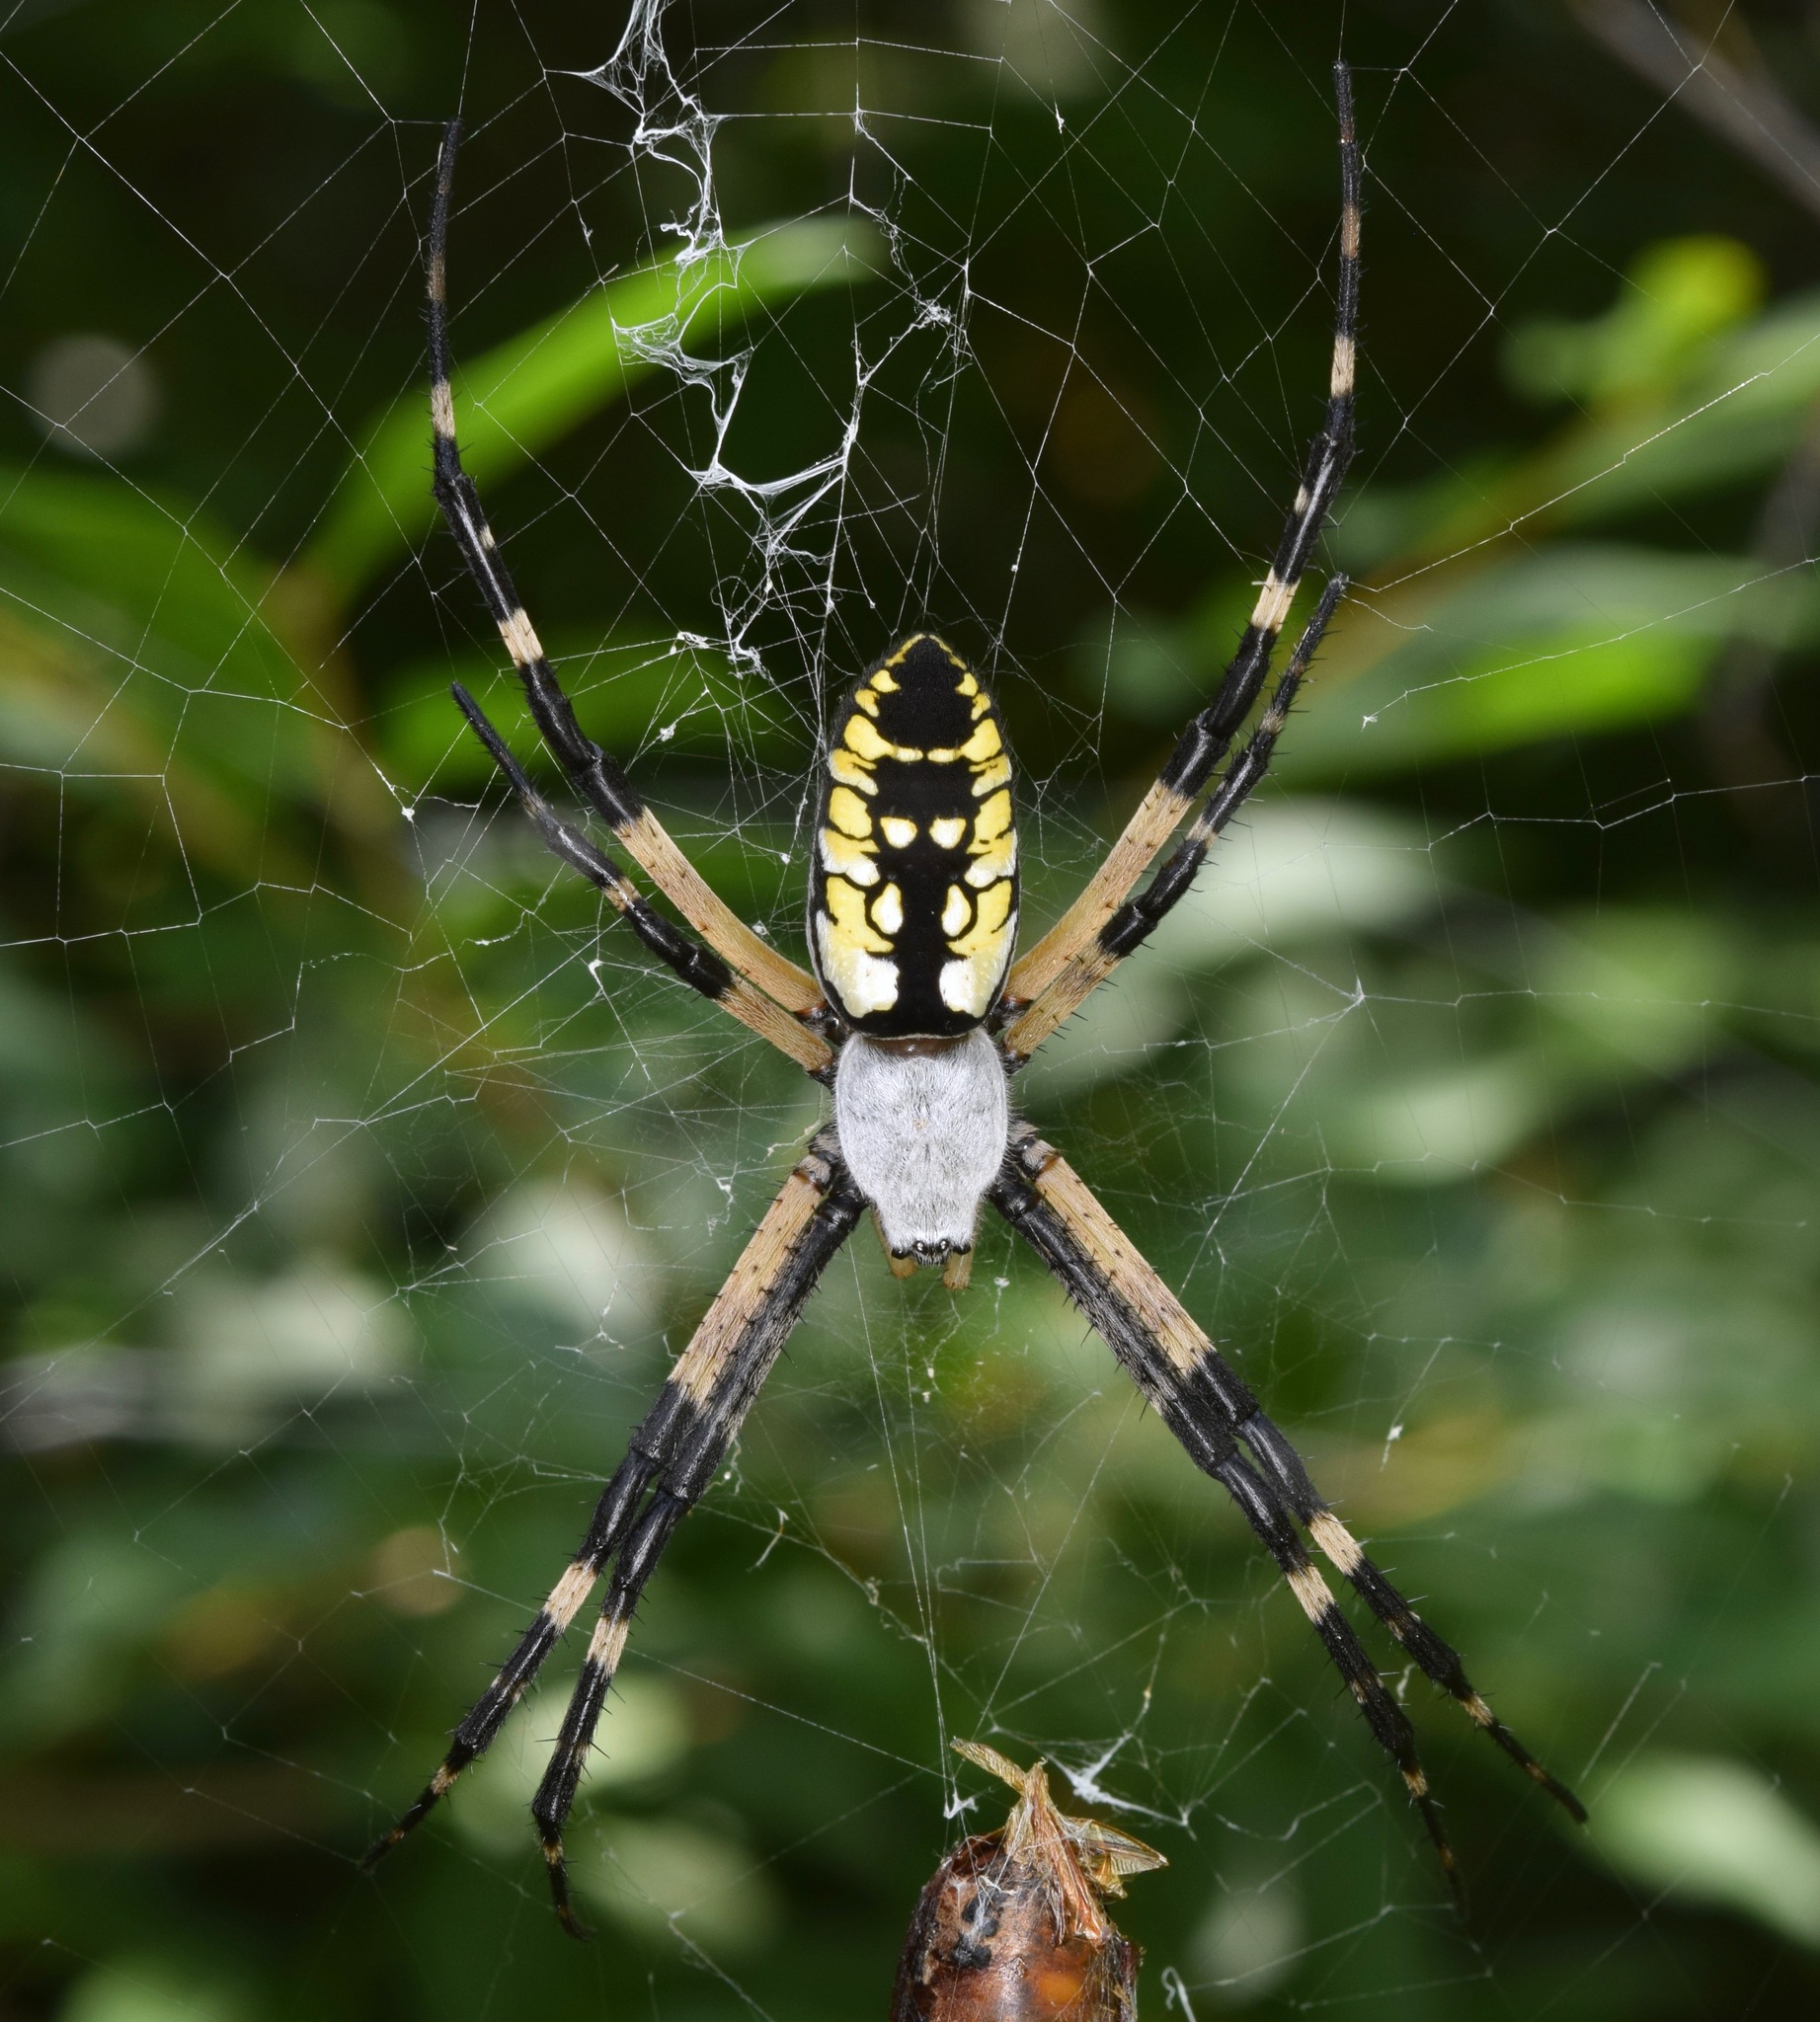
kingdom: Animalia
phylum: Arthropoda
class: Arachnida
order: Araneae
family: Araneidae
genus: Argiope
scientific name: Argiope aurantia
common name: Orb weavers
